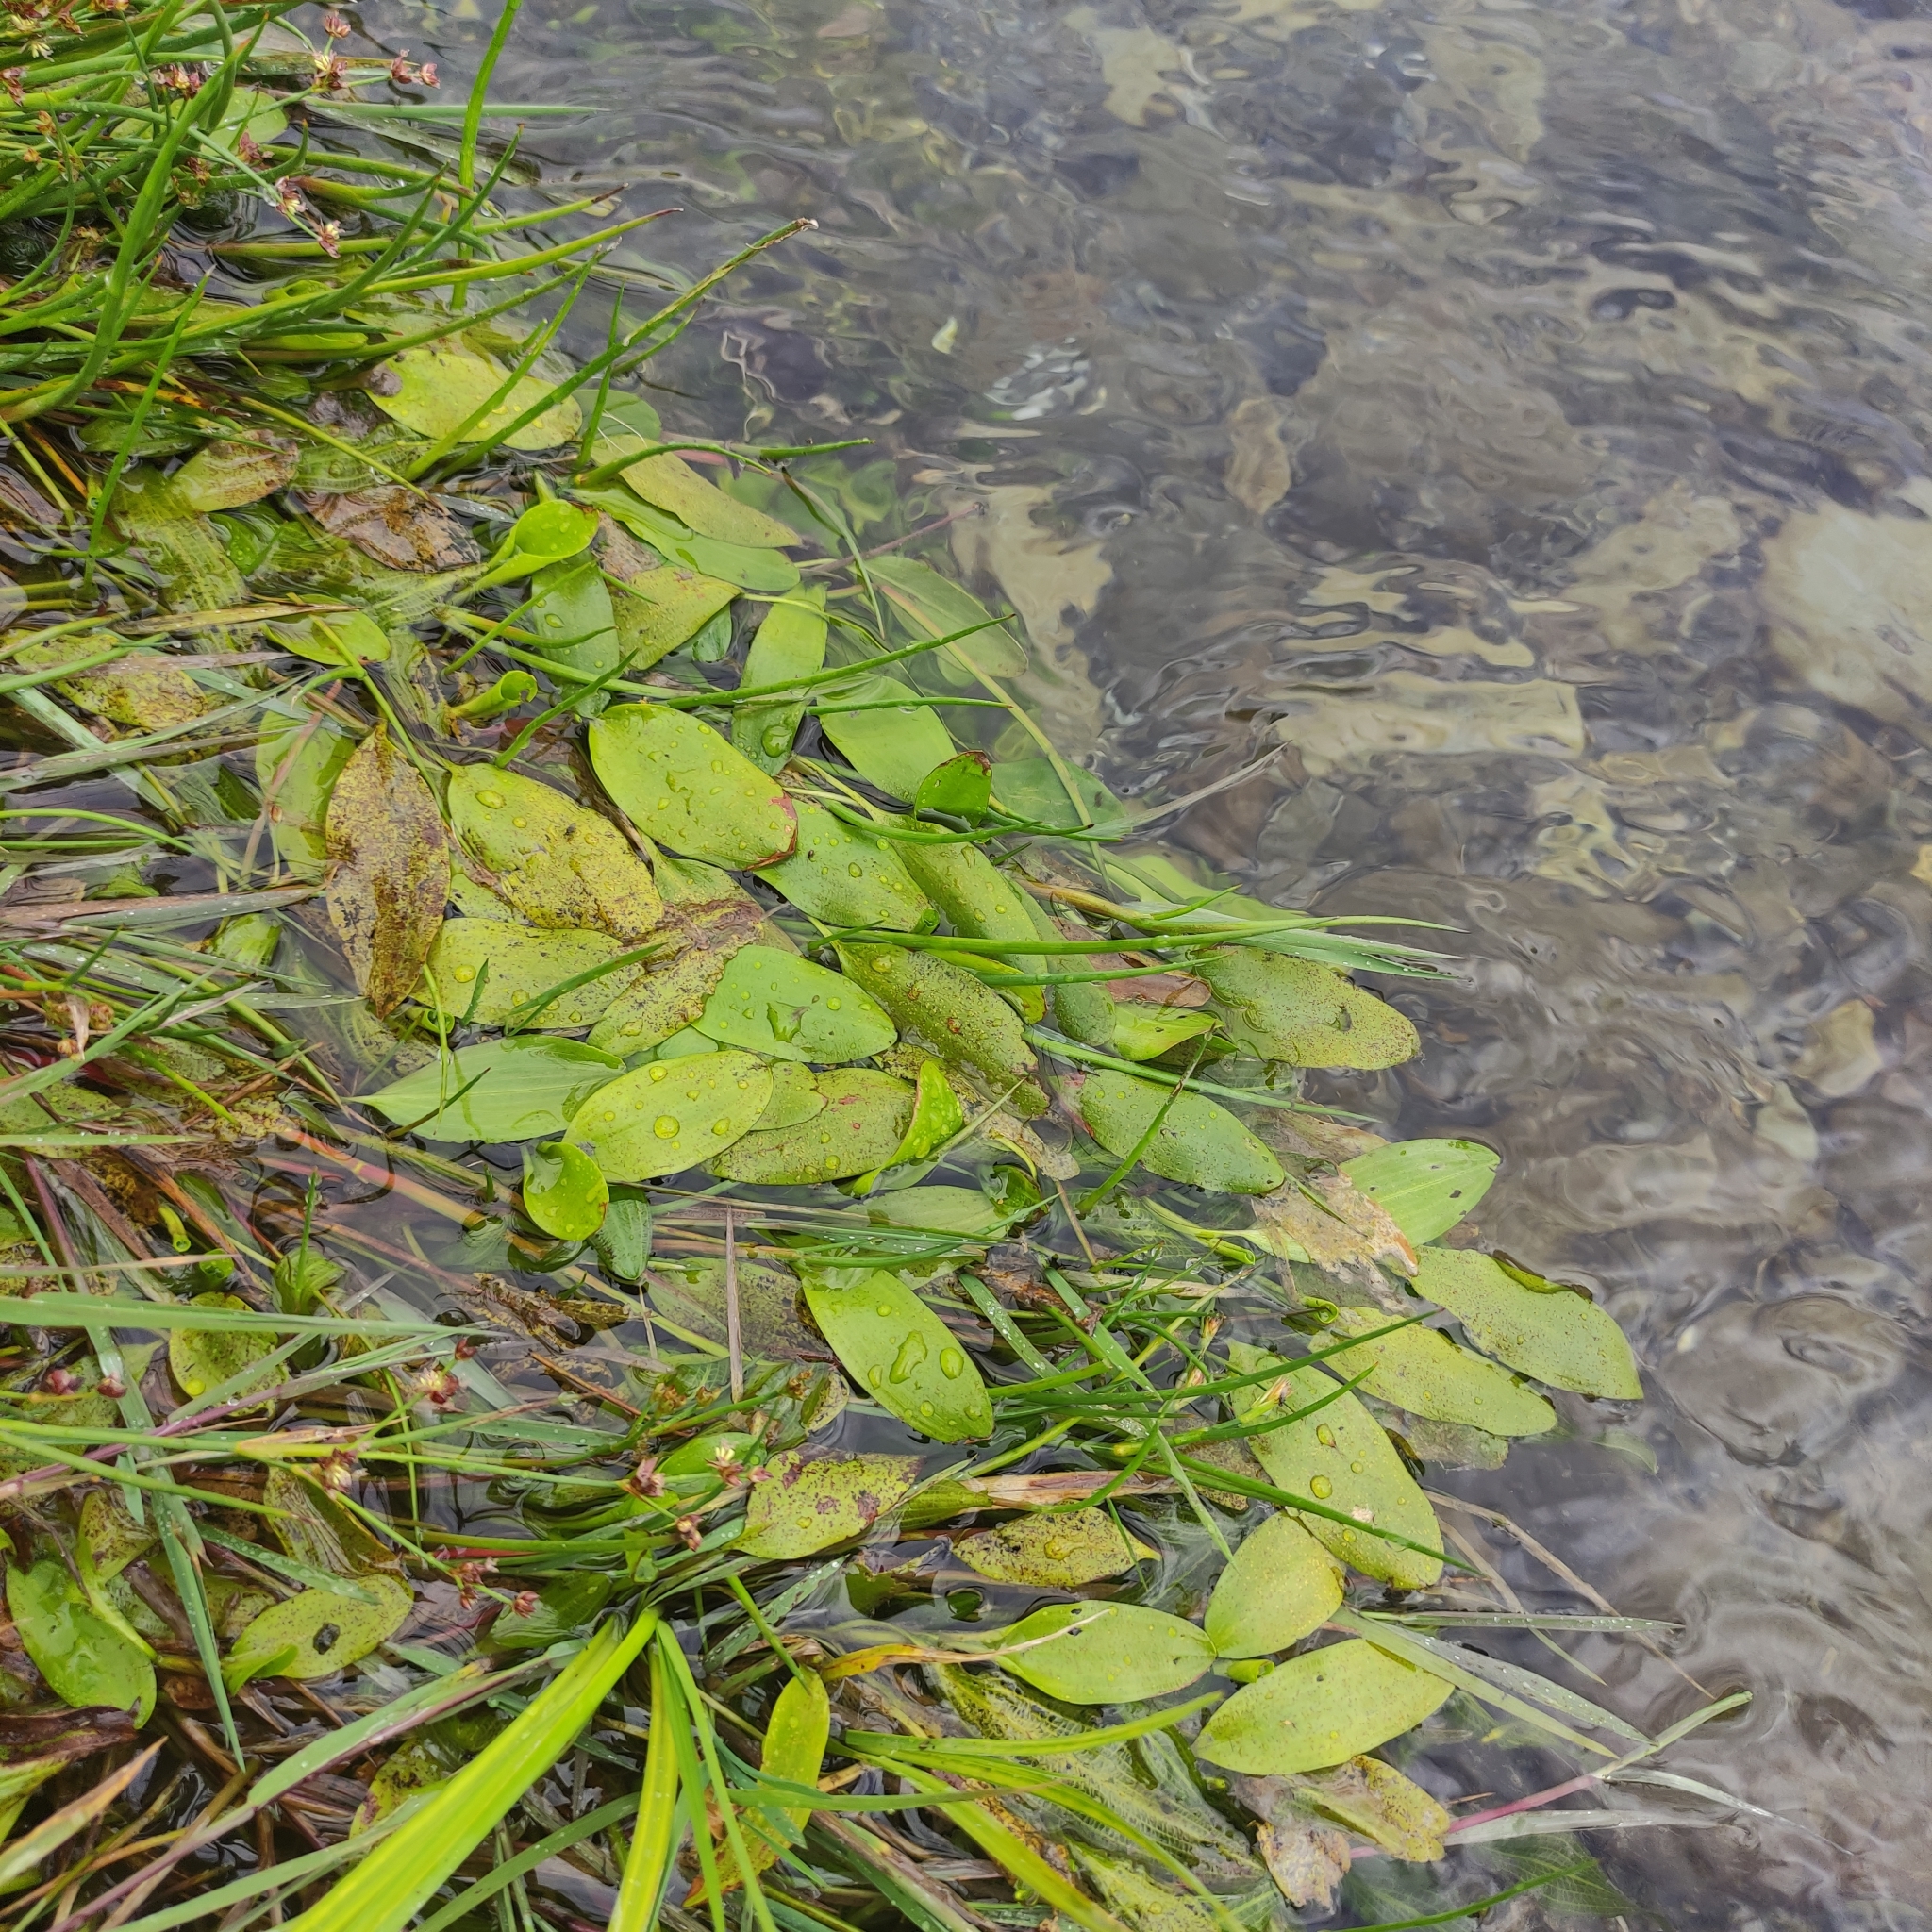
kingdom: Plantae
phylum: Tracheophyta
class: Liliopsida
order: Alismatales
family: Potamogetonaceae
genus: Potamogeton
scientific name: Potamogeton cheesemanii
